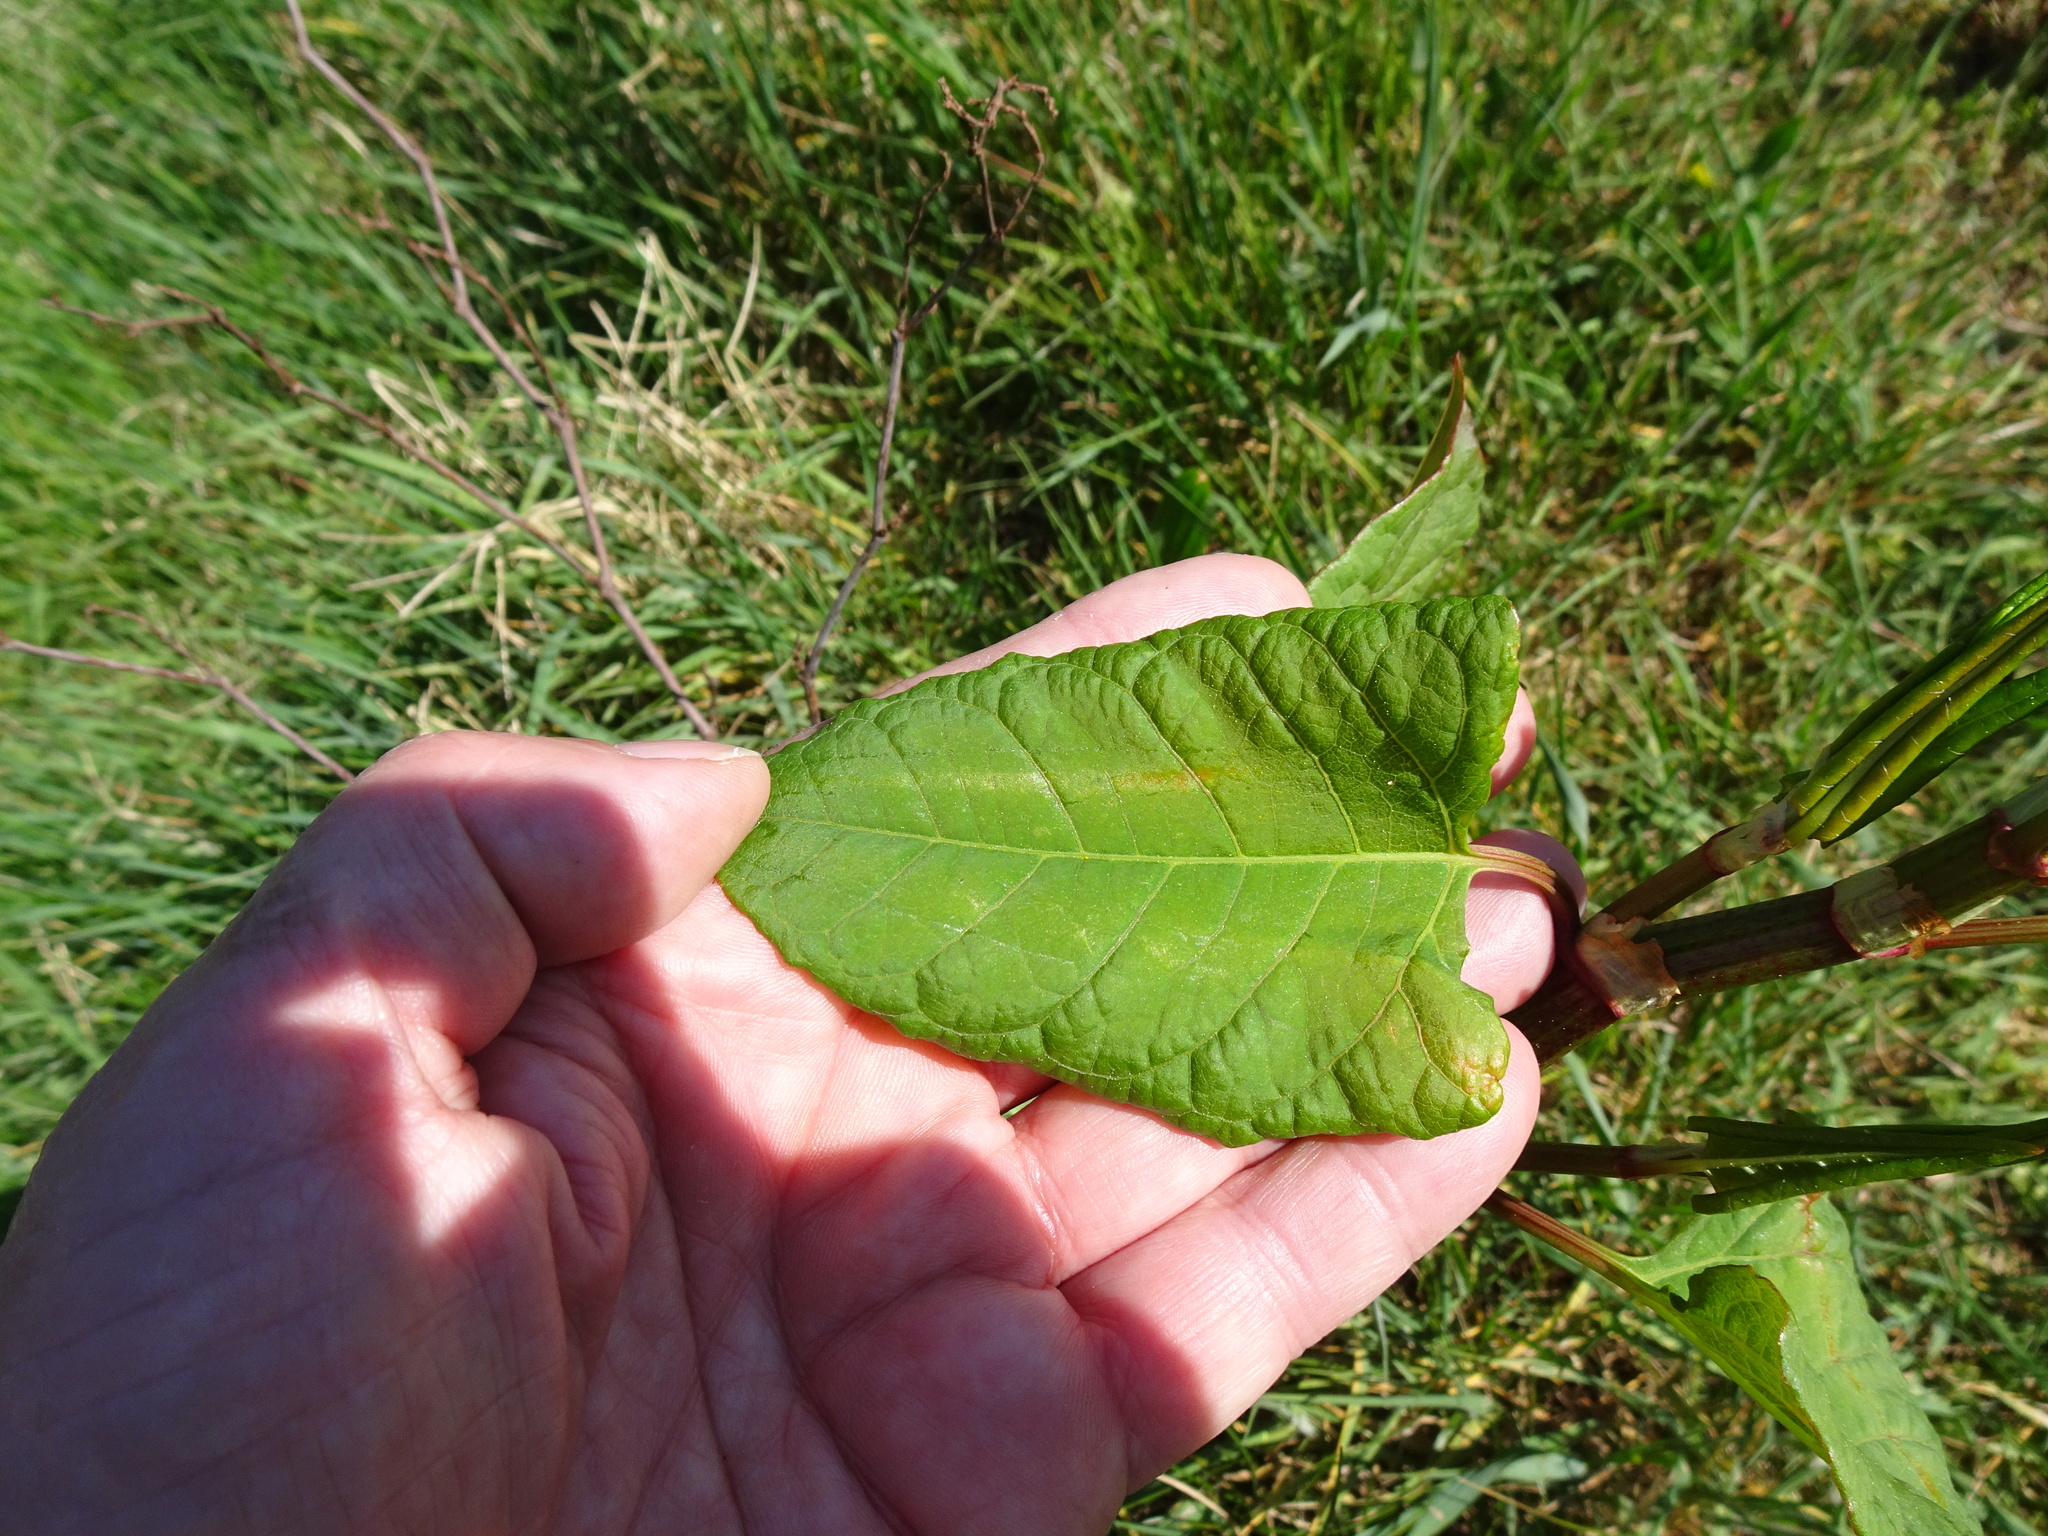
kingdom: Plantae
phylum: Tracheophyta
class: Magnoliopsida
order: Caryophyllales
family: Polygonaceae
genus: Reynoutria
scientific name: Reynoutria japonica
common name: Japanese knotweed
